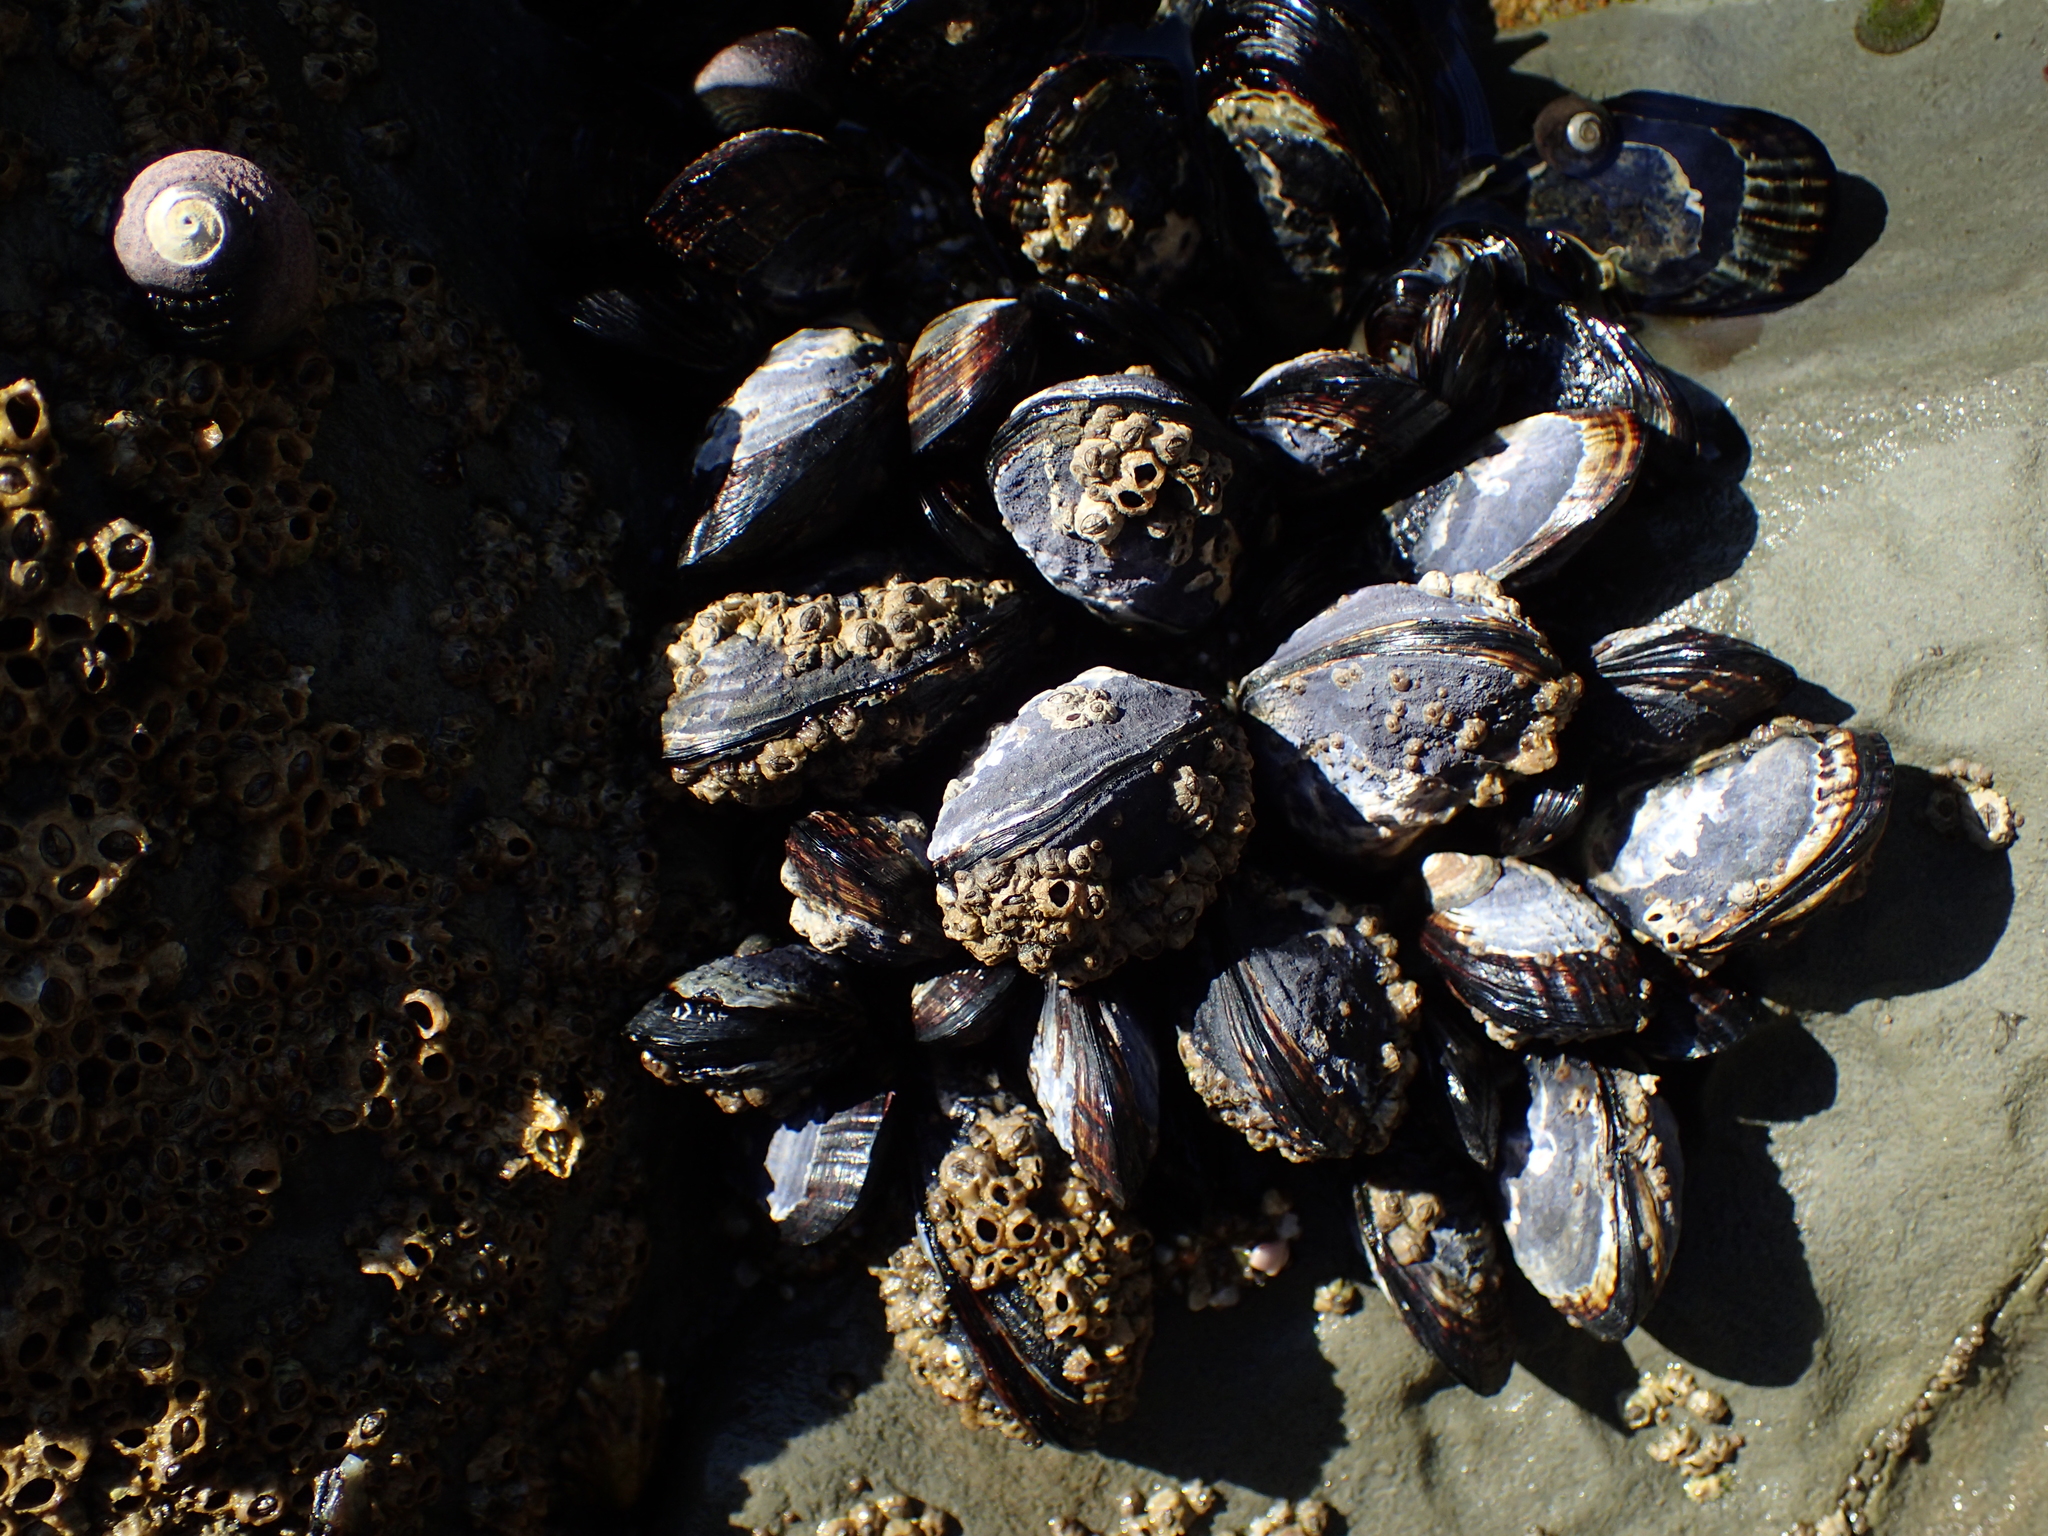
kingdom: Animalia
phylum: Mollusca
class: Bivalvia
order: Mytilida
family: Mytilidae
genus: Mytilus
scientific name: Mytilus californianus
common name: California mussel
